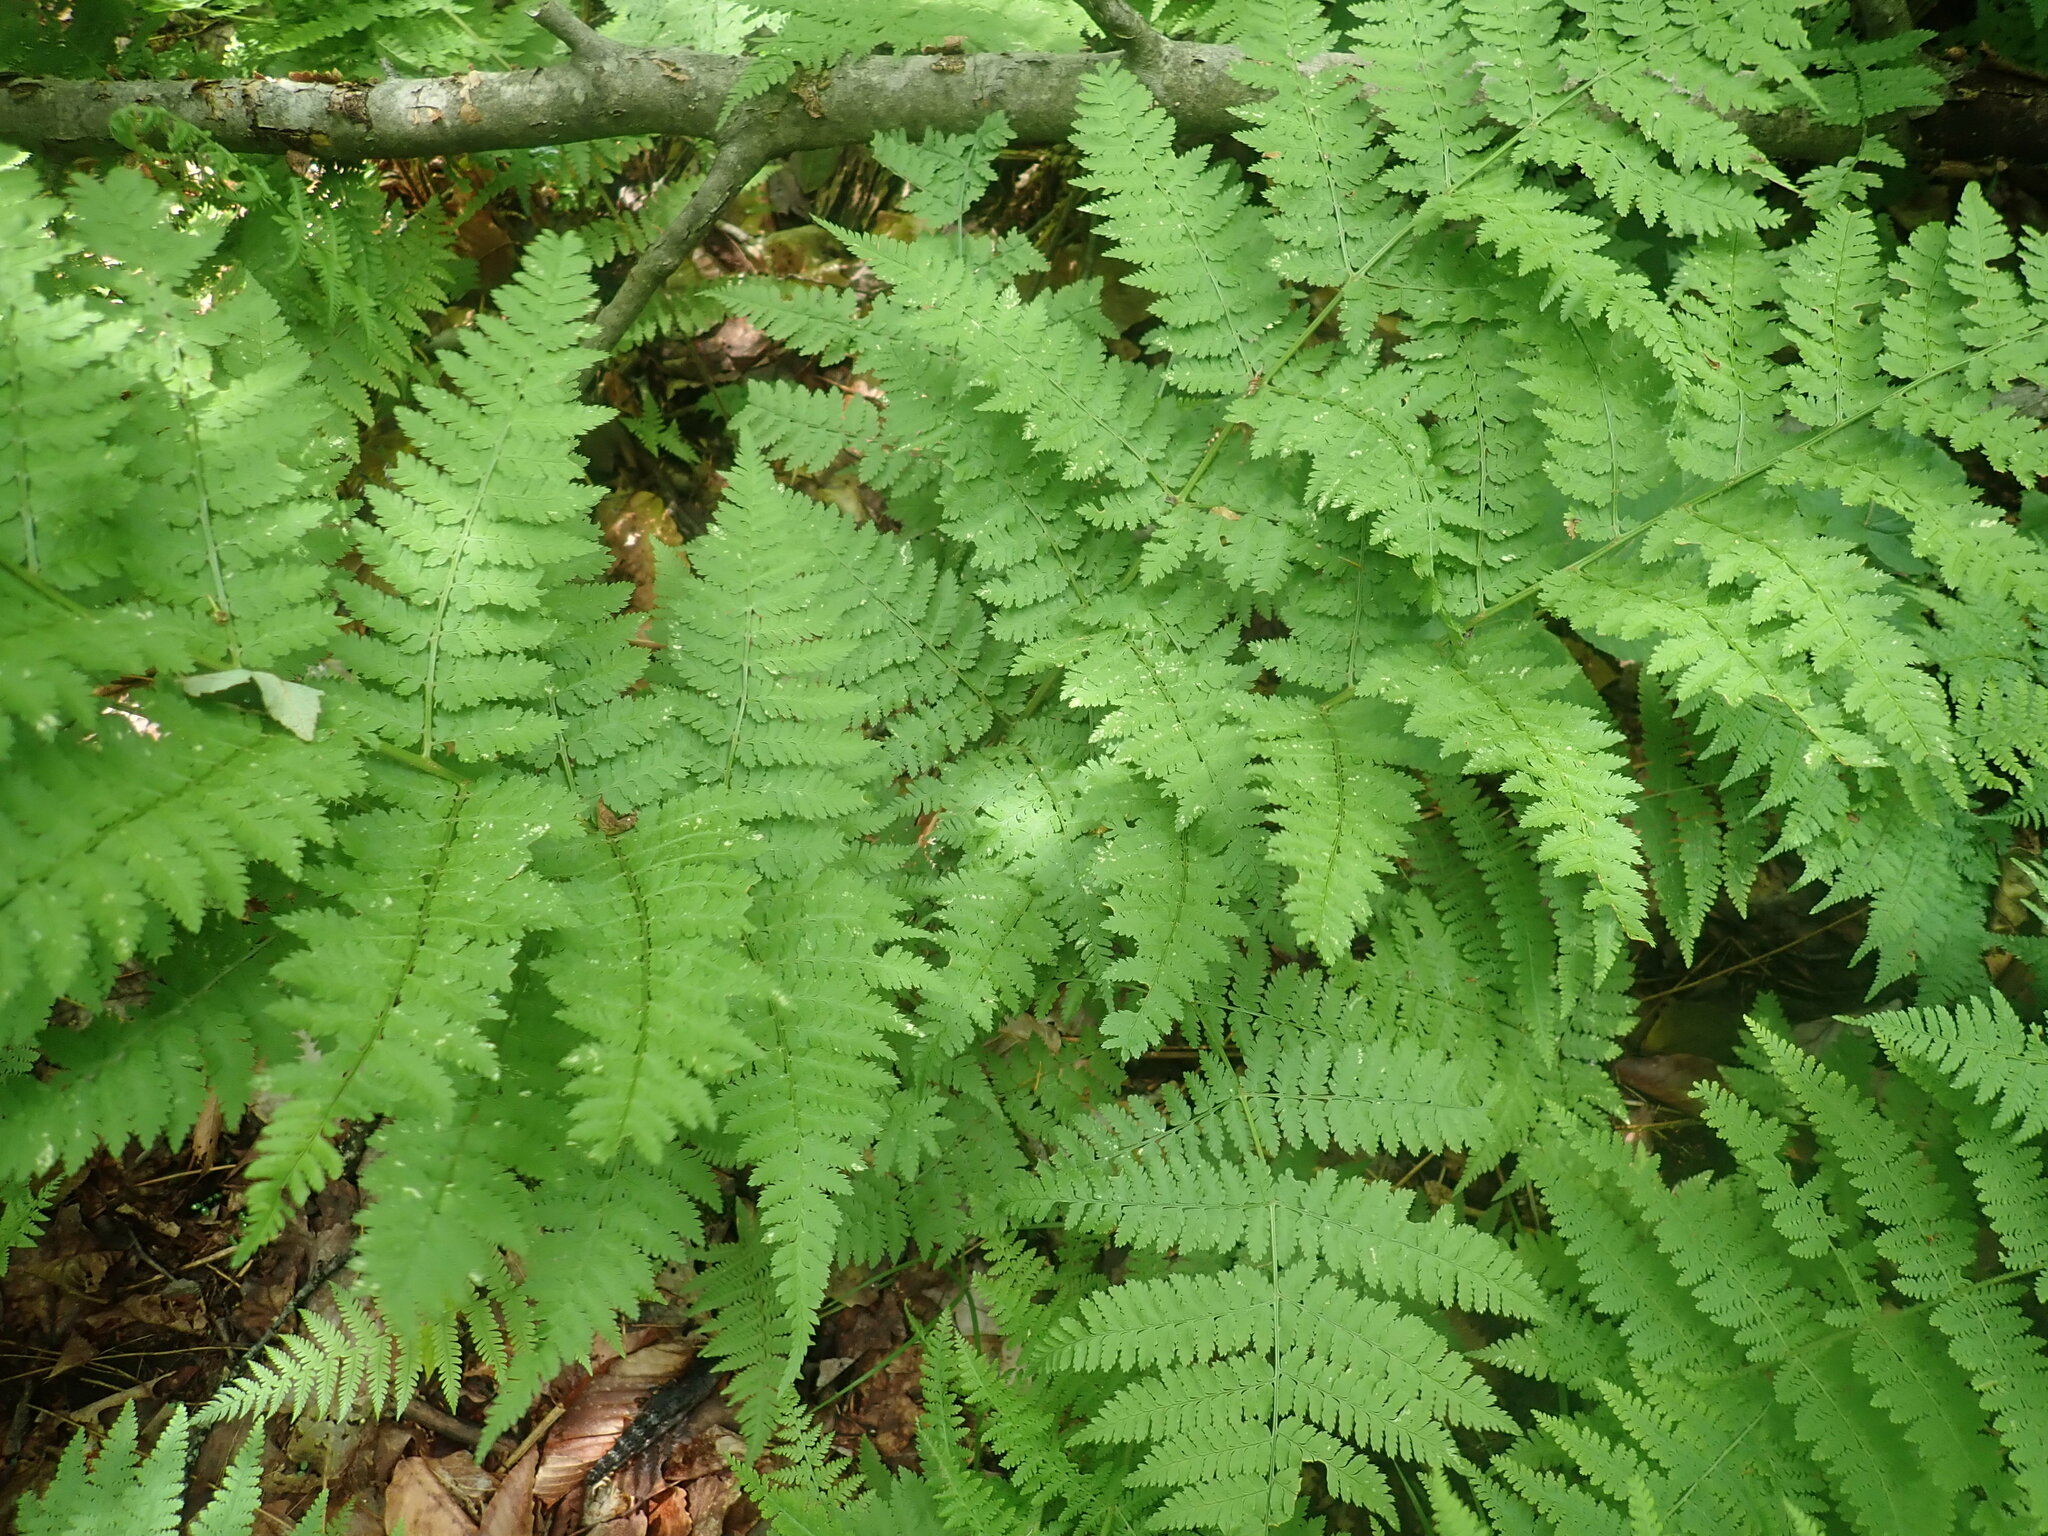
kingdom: Plantae
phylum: Tracheophyta
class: Polypodiopsida
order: Polypodiales
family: Dryopteridaceae
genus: Dryopteris
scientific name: Dryopteris campyloptera
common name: Mountain wood fern
